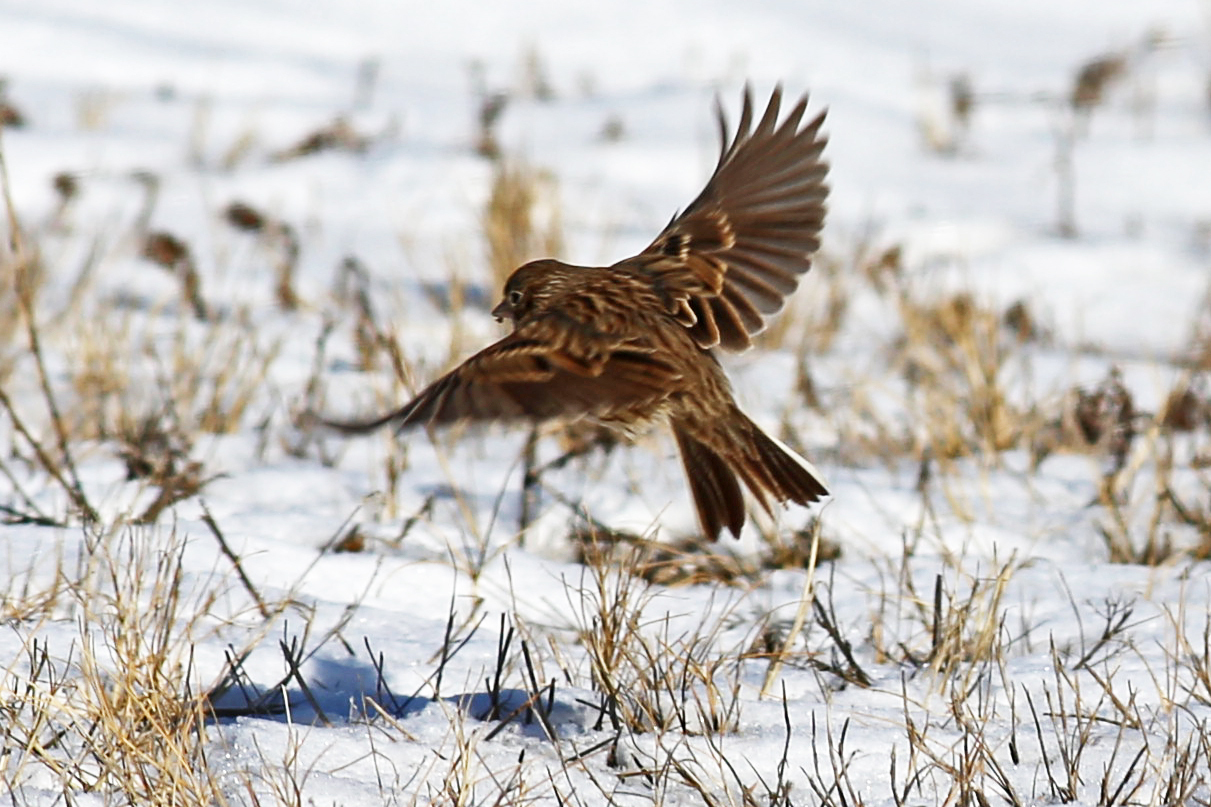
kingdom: Animalia
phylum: Chordata
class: Aves
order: Passeriformes
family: Passerellidae
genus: Pooecetes
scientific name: Pooecetes gramineus
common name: Vesper sparrow
